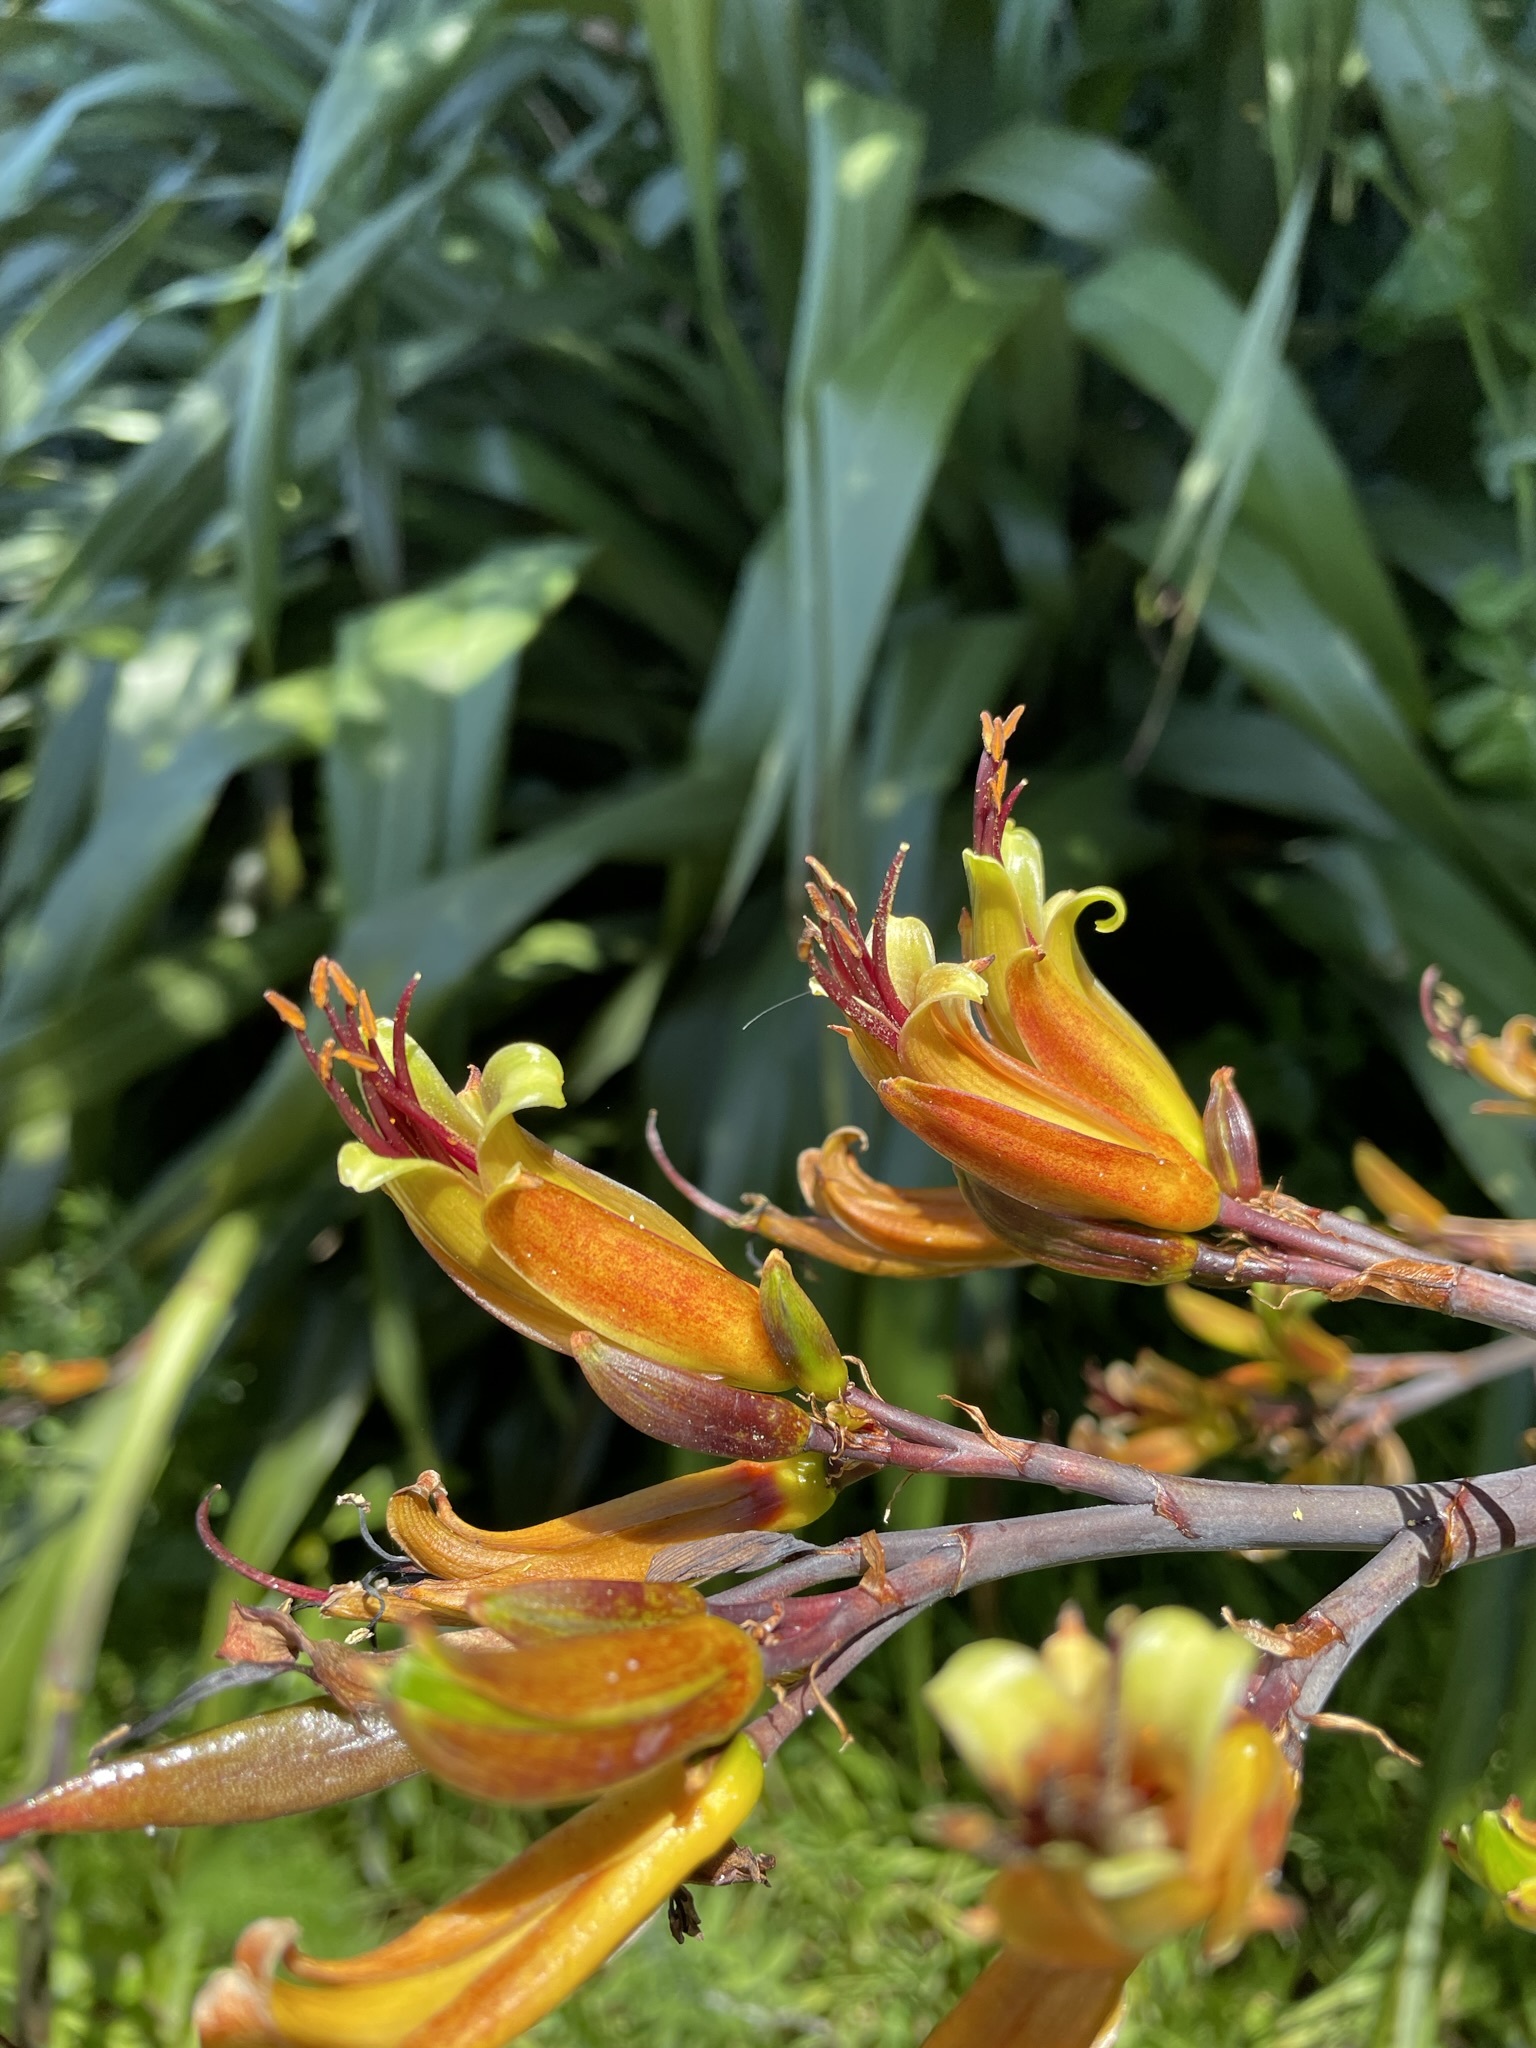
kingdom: Plantae
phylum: Tracheophyta
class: Liliopsida
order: Asparagales
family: Asphodelaceae
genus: Phormium
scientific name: Phormium colensoi
